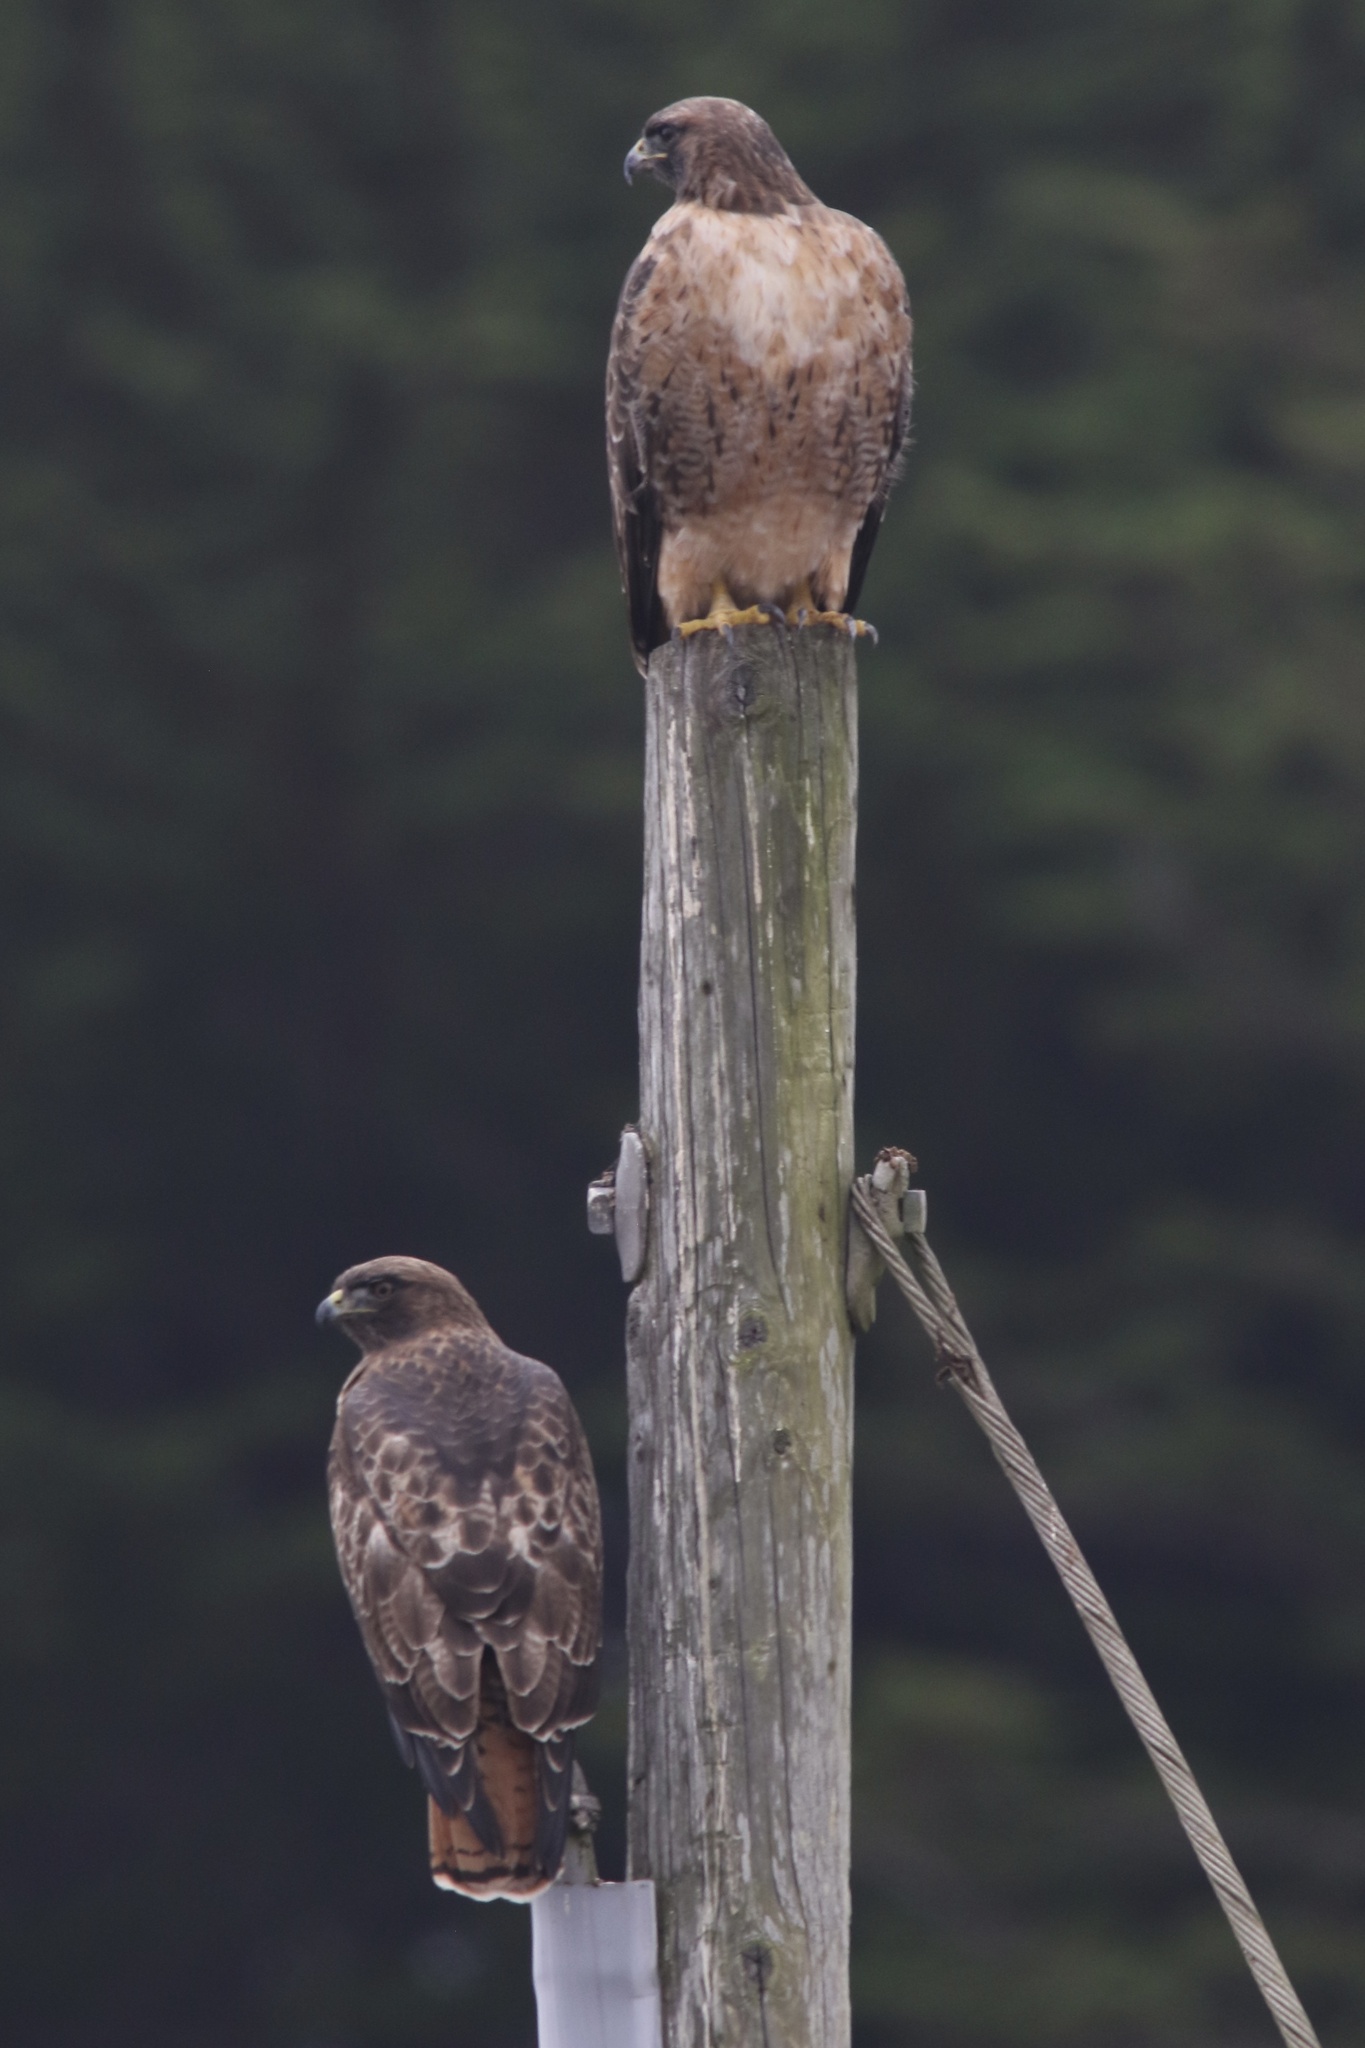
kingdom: Animalia
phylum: Chordata
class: Aves
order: Accipitriformes
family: Accipitridae
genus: Buteo
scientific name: Buteo jamaicensis
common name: Red-tailed hawk
